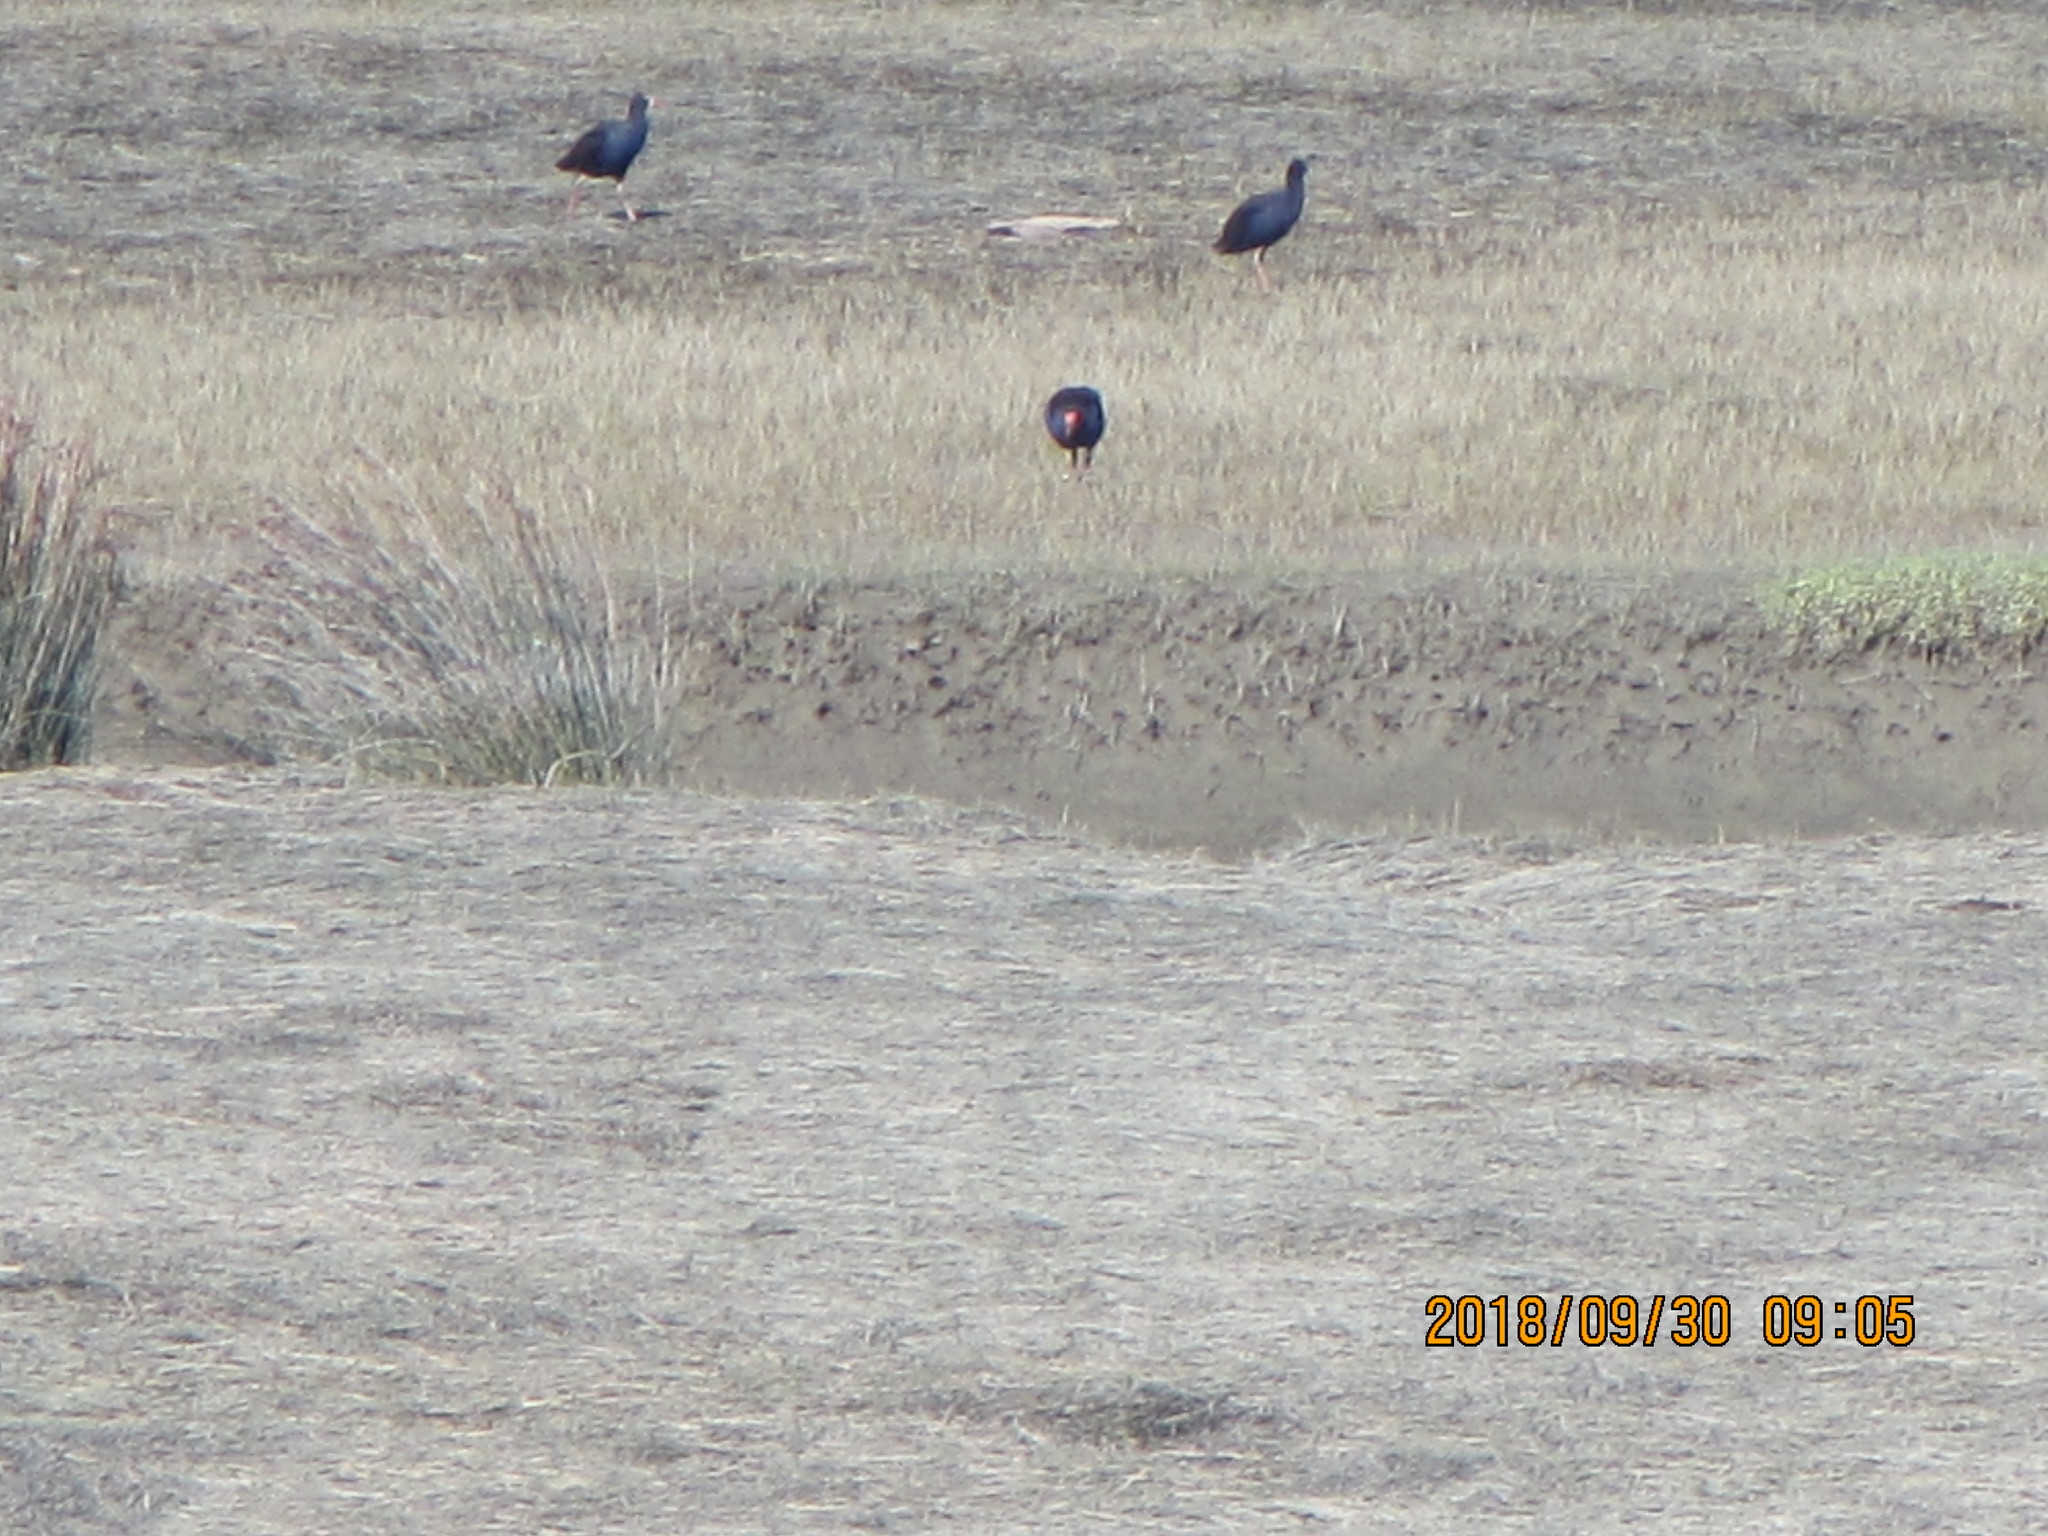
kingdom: Animalia
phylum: Chordata
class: Aves
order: Gruiformes
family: Rallidae
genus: Porphyrio
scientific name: Porphyrio melanotus
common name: Australasian swamphen
